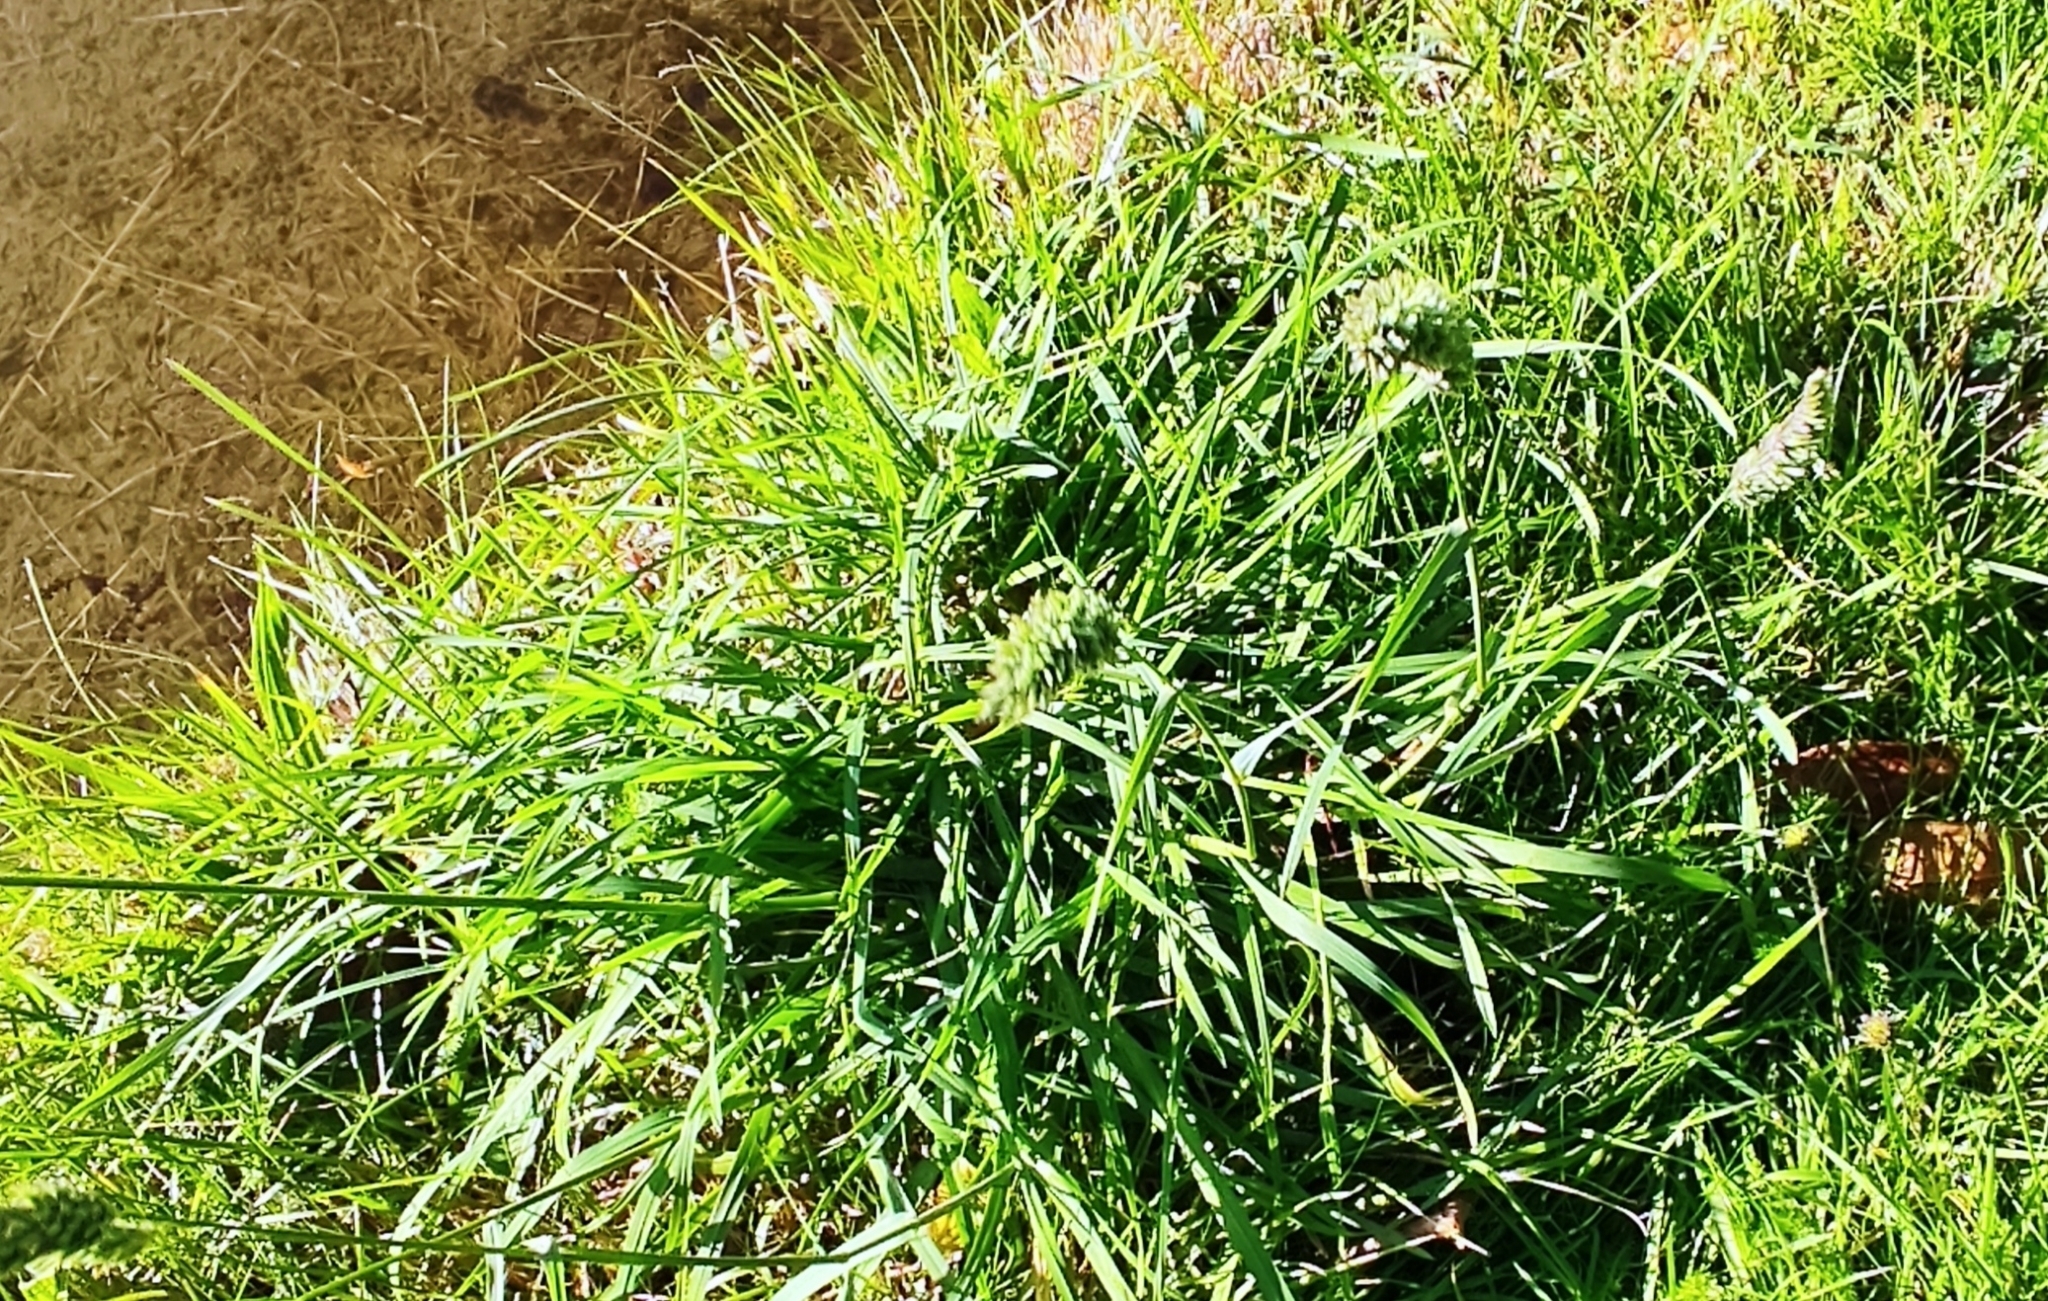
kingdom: Plantae
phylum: Tracheophyta
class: Liliopsida
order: Poales
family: Poaceae
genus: Dactylis
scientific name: Dactylis glomerata
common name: Orchardgrass
